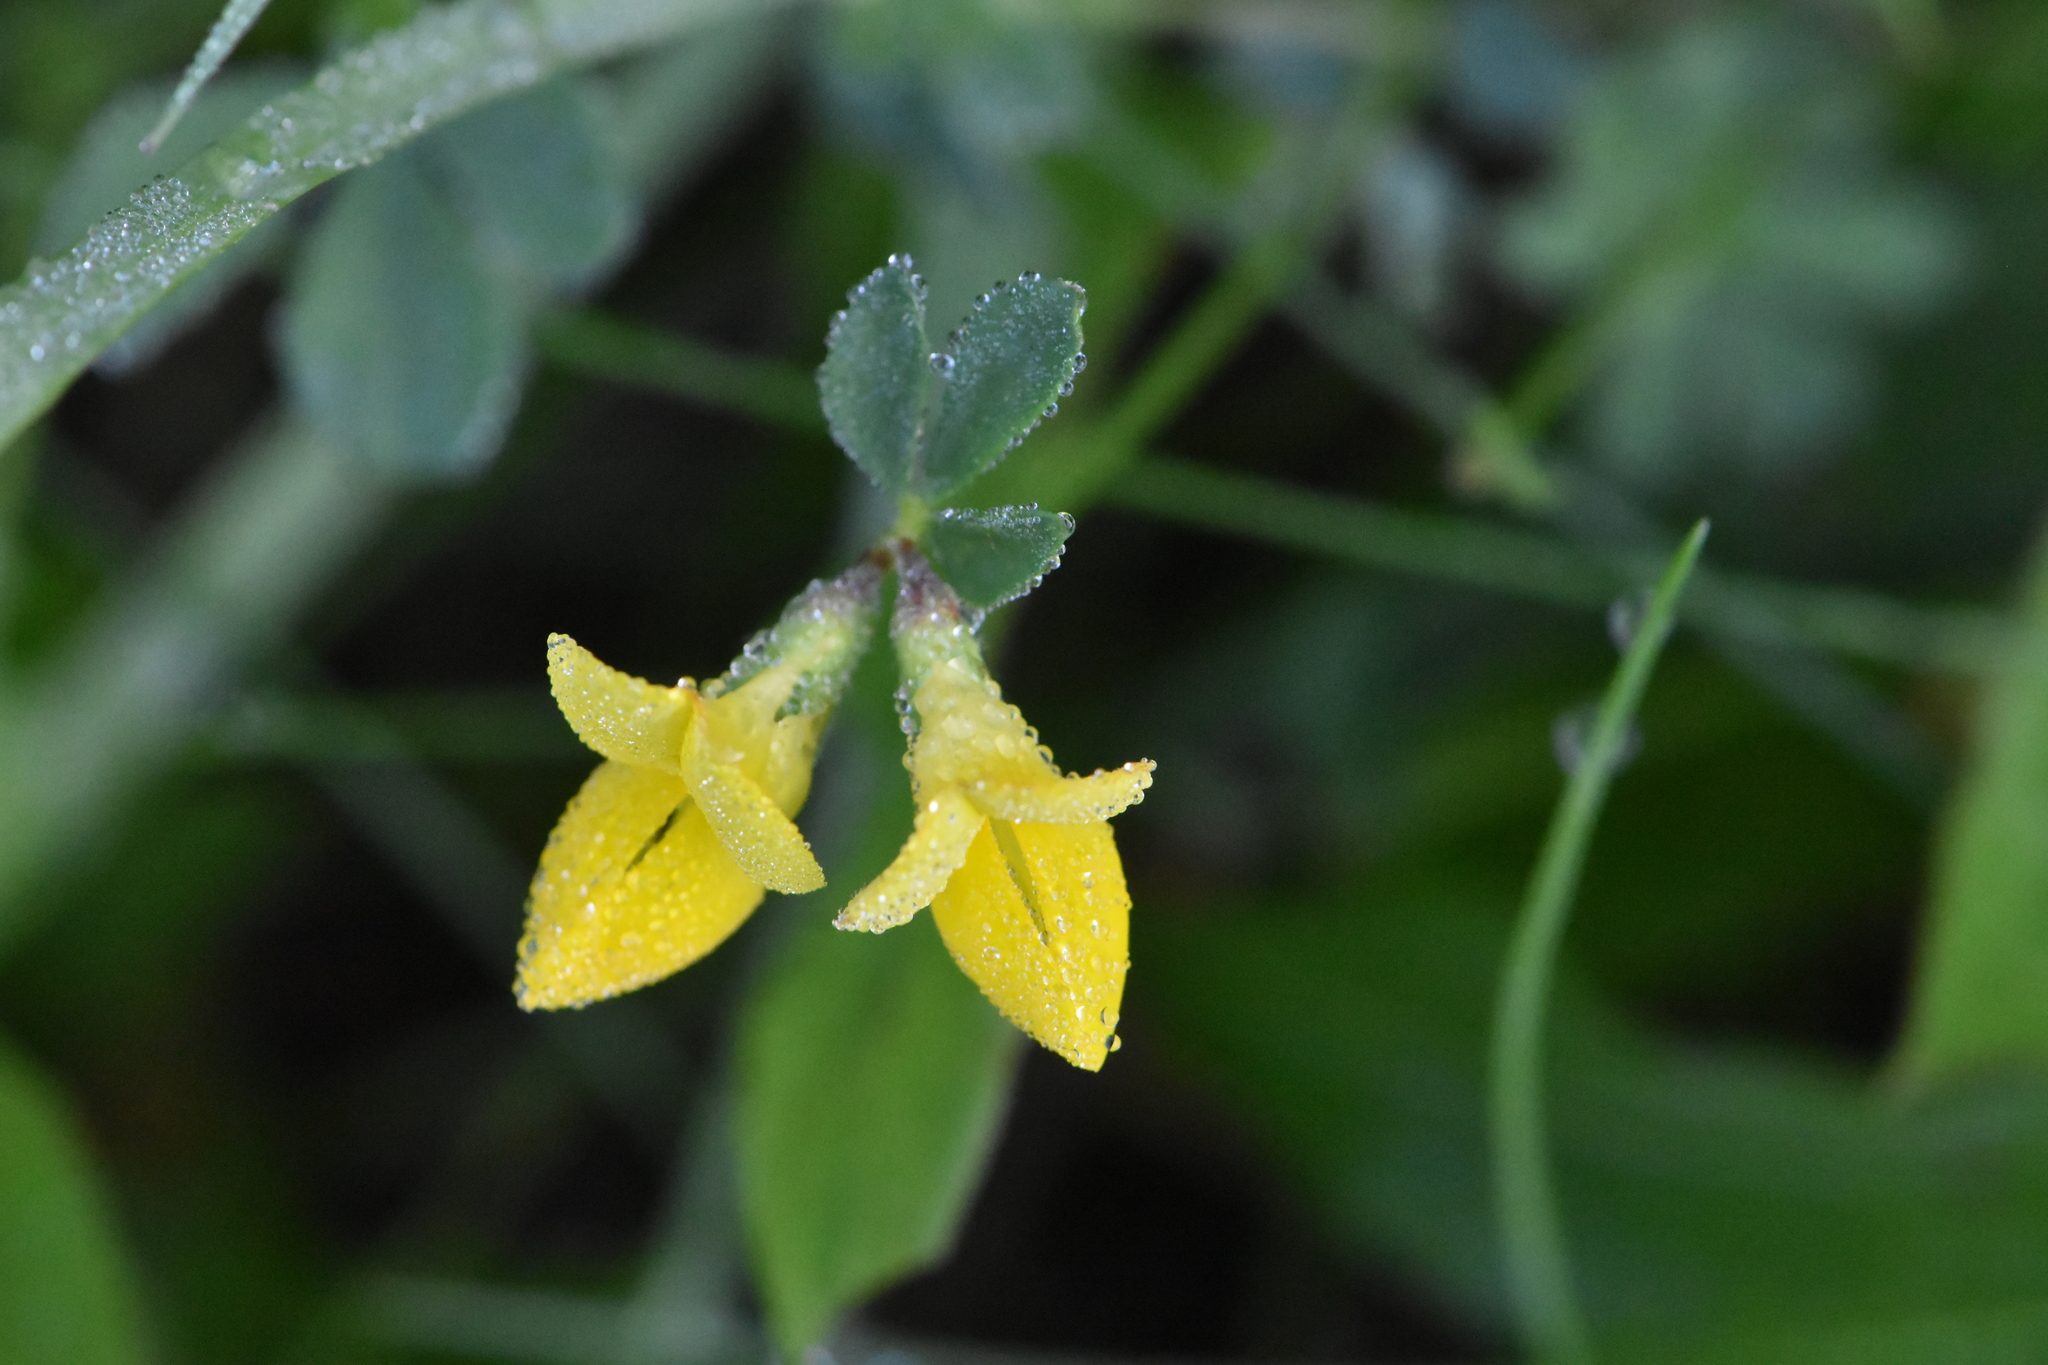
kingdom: Plantae
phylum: Tracheophyta
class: Magnoliopsida
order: Fabales
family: Fabaceae
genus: Lotus
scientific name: Lotus corniculatus
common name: Common bird's-foot-trefoil
